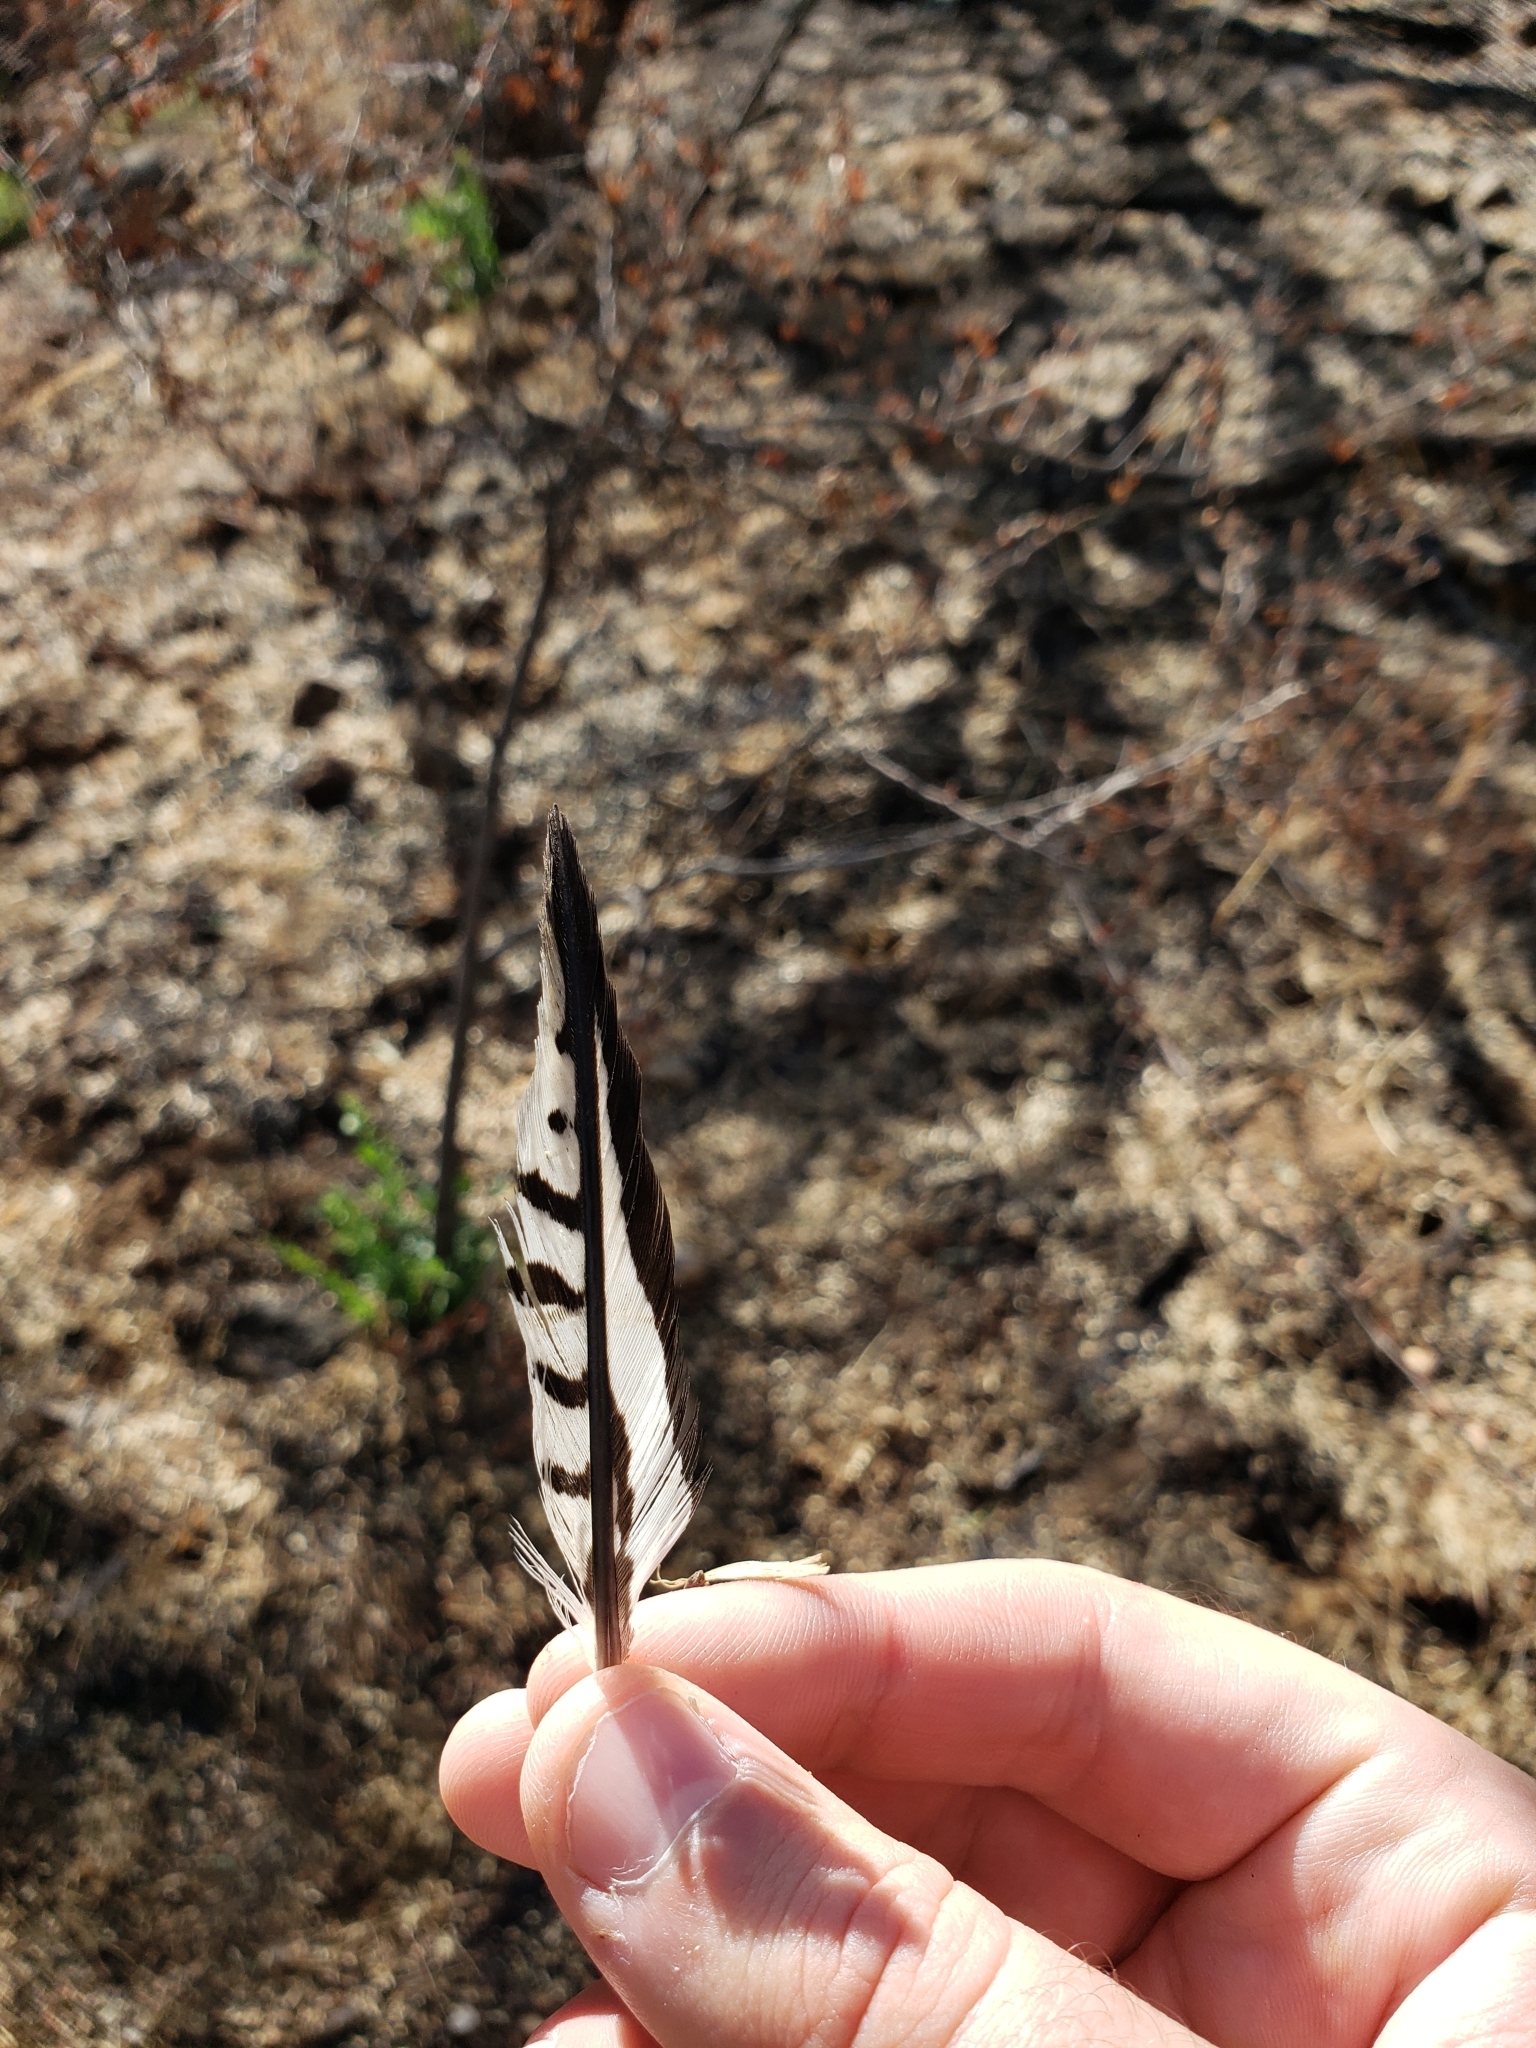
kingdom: Animalia
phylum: Chordata
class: Aves
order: Piciformes
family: Picidae
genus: Melanerpes
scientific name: Melanerpes uropygialis
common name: Gila woodpecker
